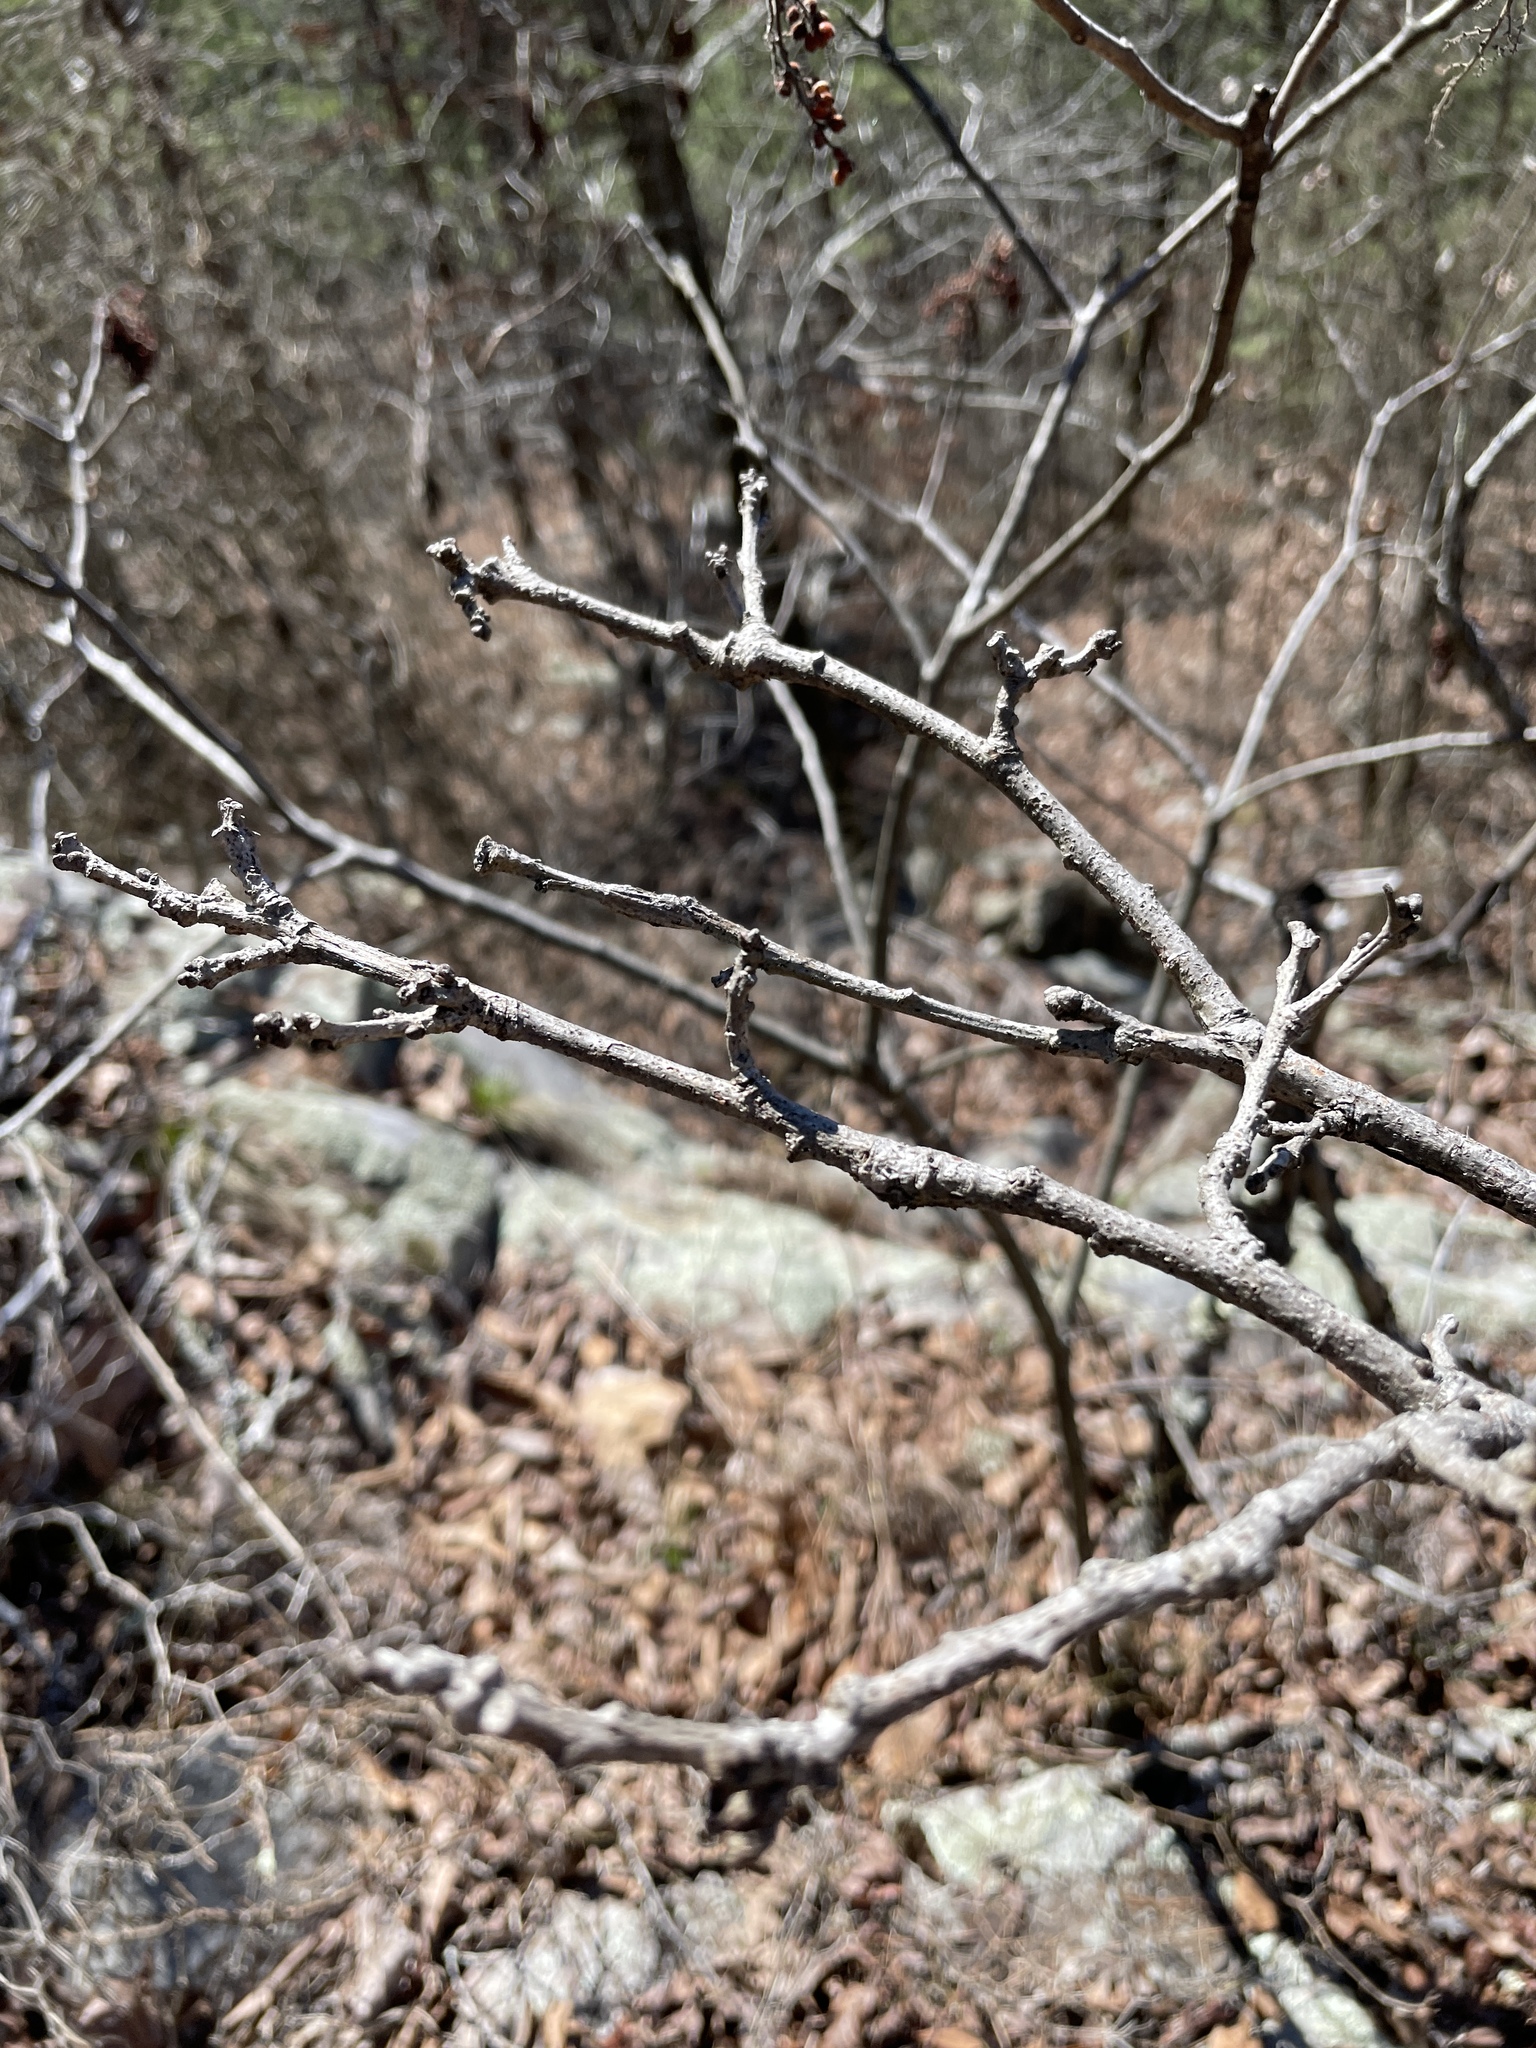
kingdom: Plantae
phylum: Tracheophyta
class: Magnoliopsida
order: Fagales
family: Fagaceae
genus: Quercus
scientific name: Quercus stellata
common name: Post oak
